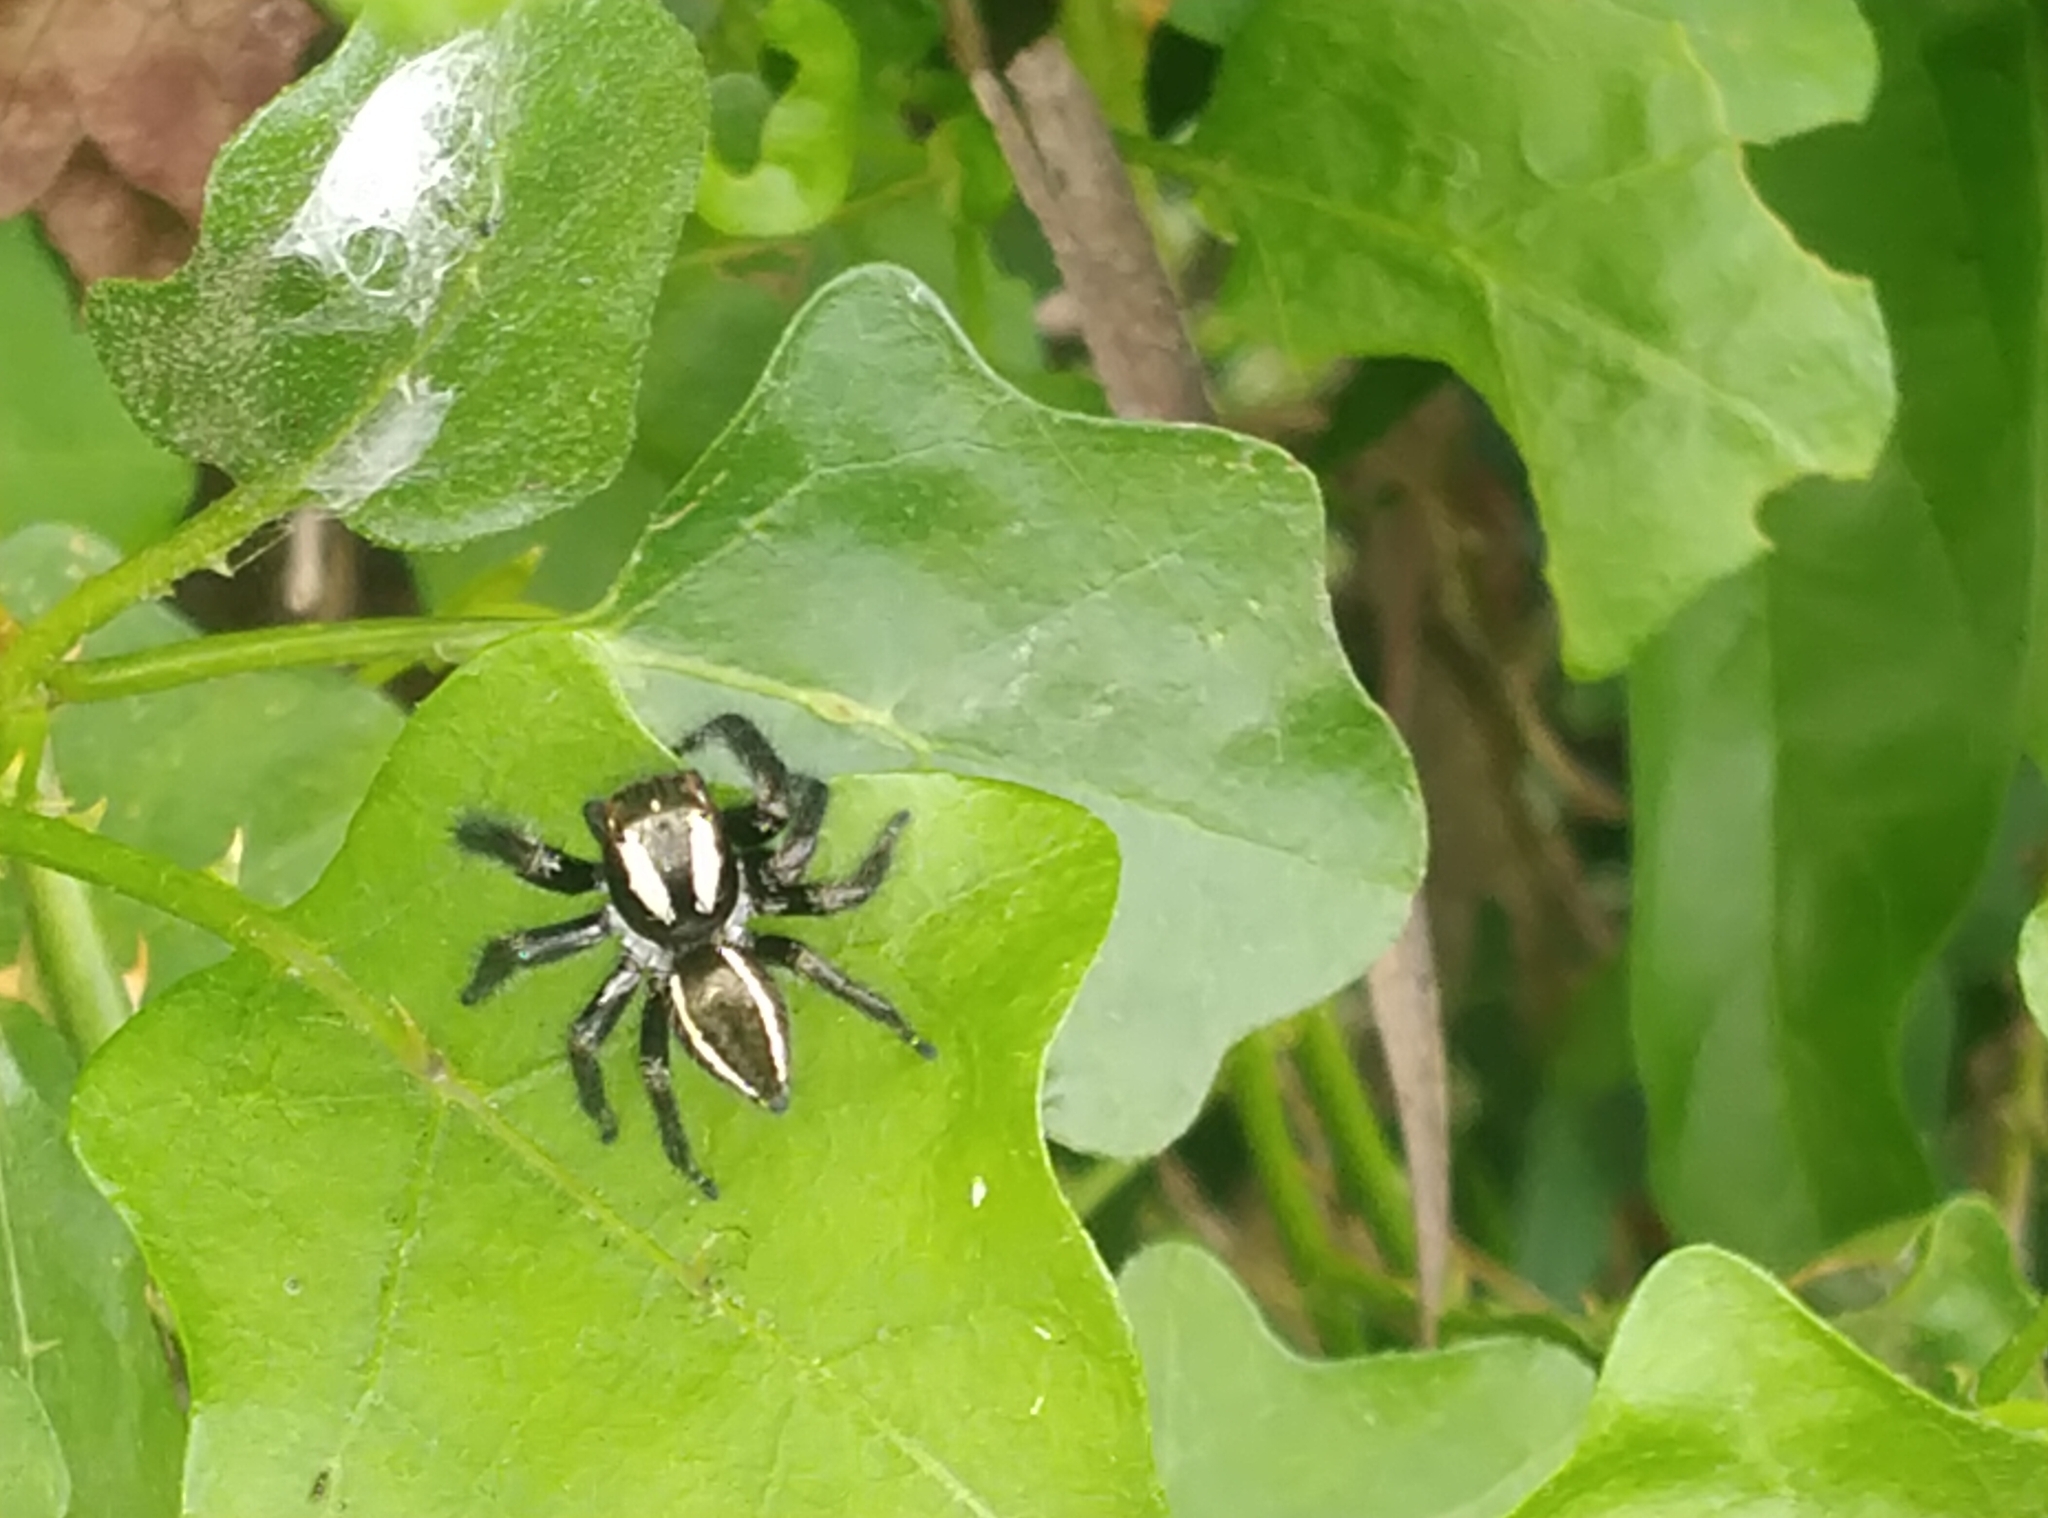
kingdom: Animalia
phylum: Arthropoda
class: Arachnida
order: Araneae
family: Salticidae
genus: Carrhotus
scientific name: Carrhotus viduus
